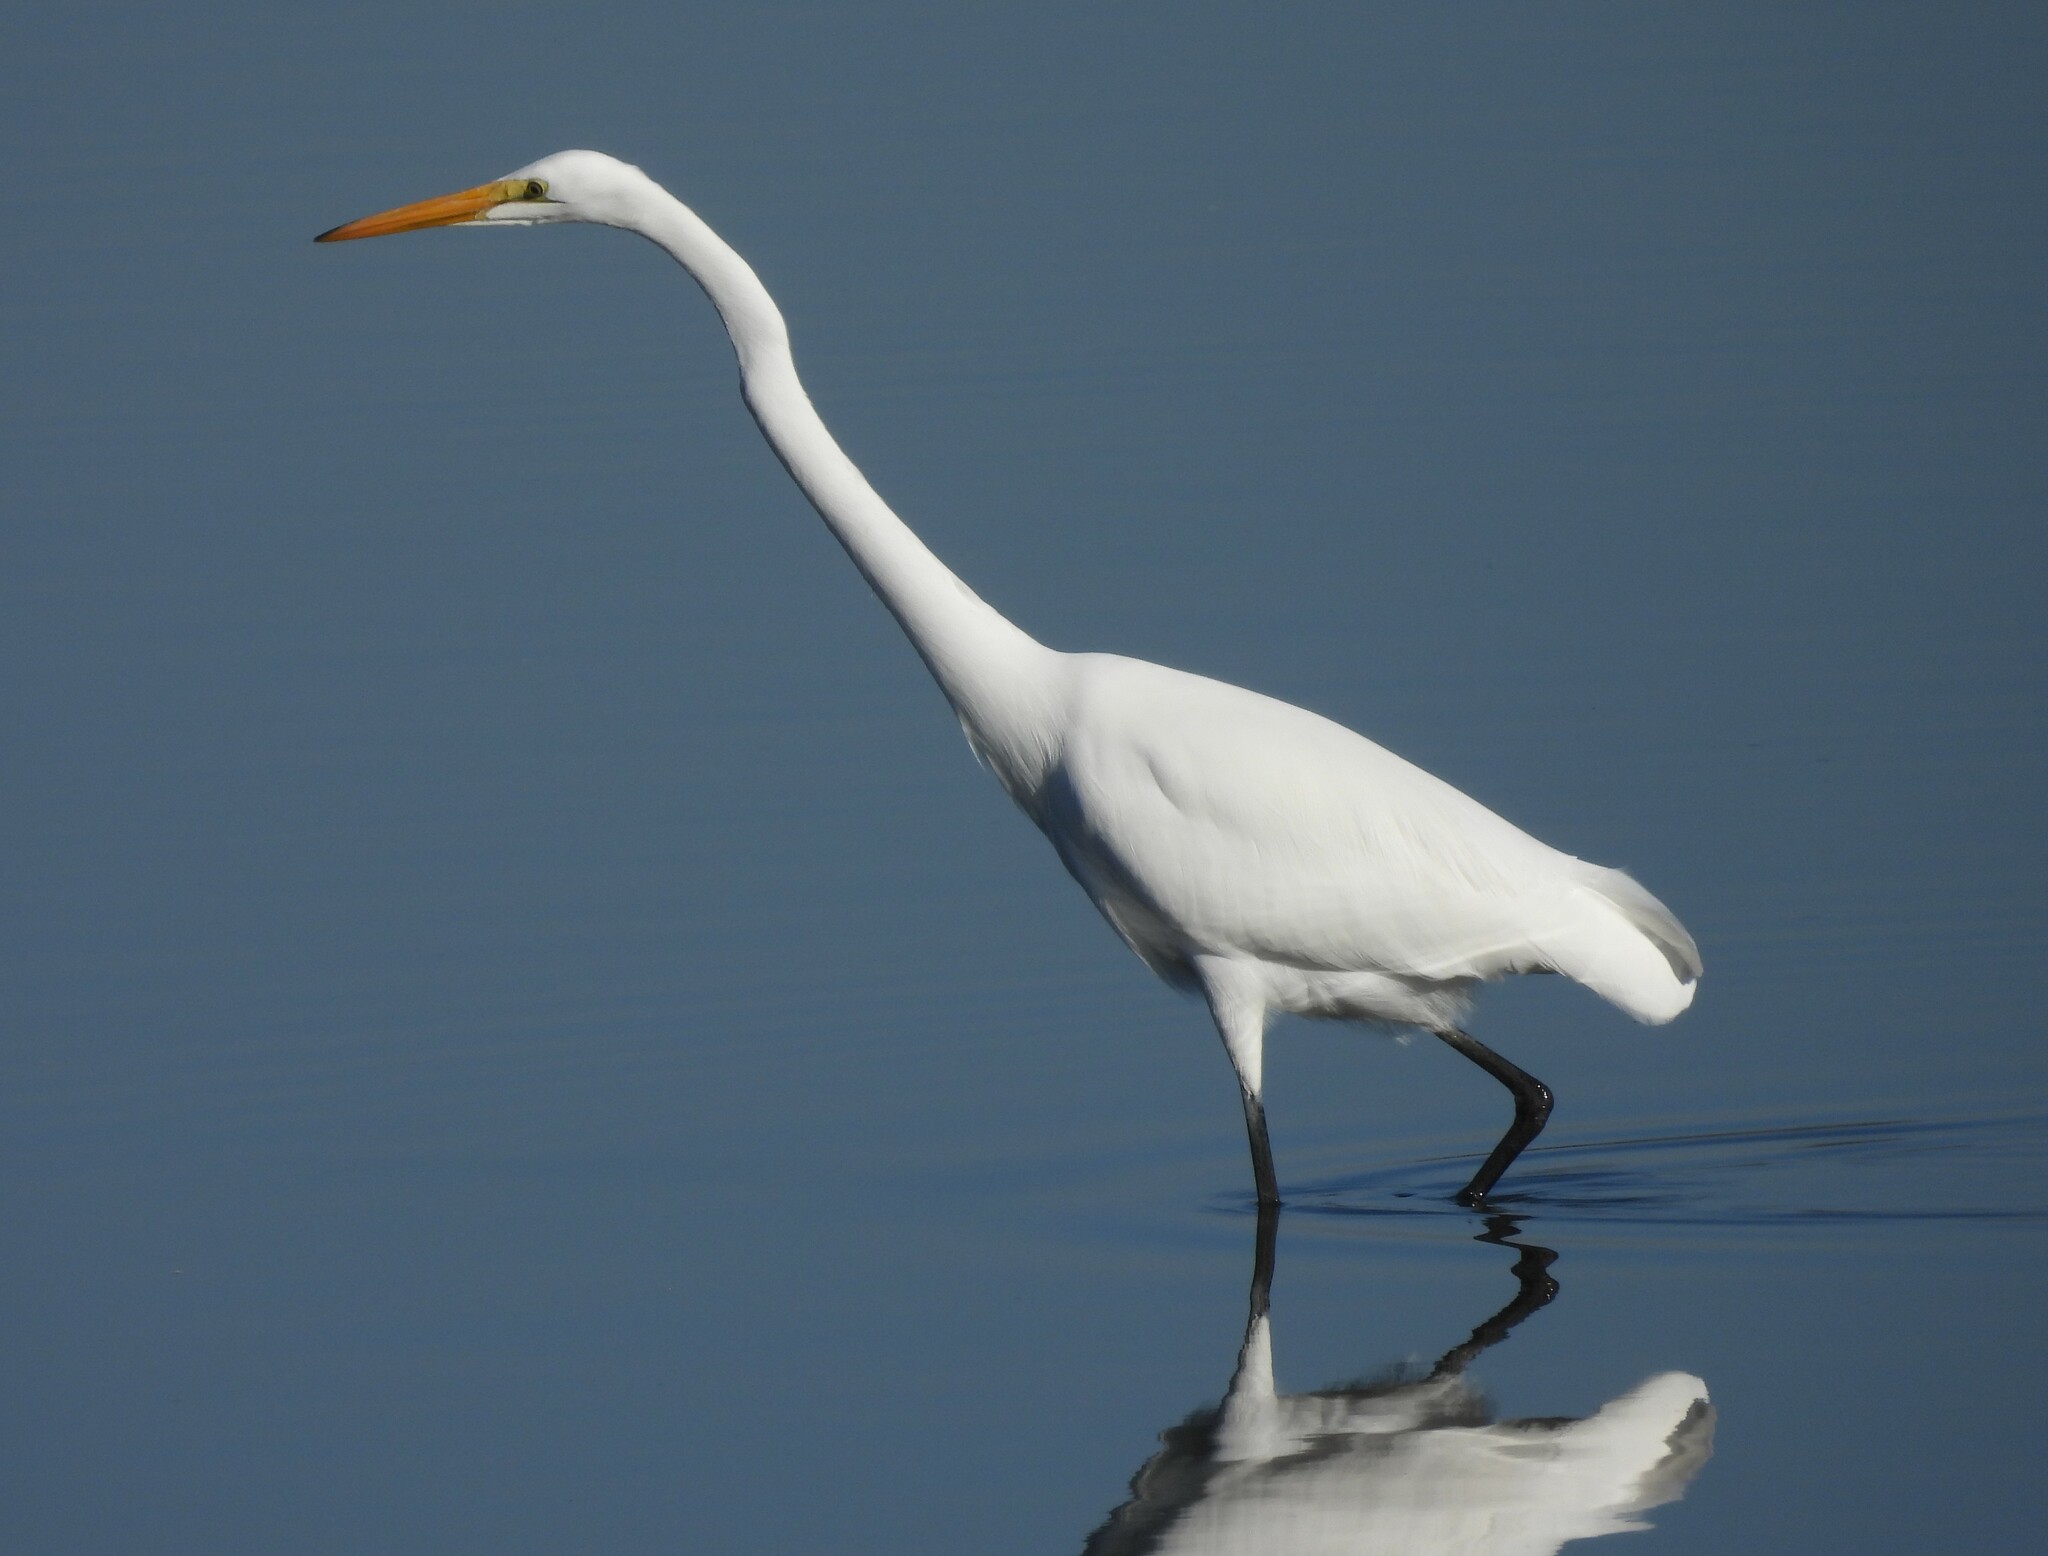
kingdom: Animalia
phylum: Chordata
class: Aves
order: Pelecaniformes
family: Ardeidae
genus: Ardea
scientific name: Ardea alba
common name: Great egret
